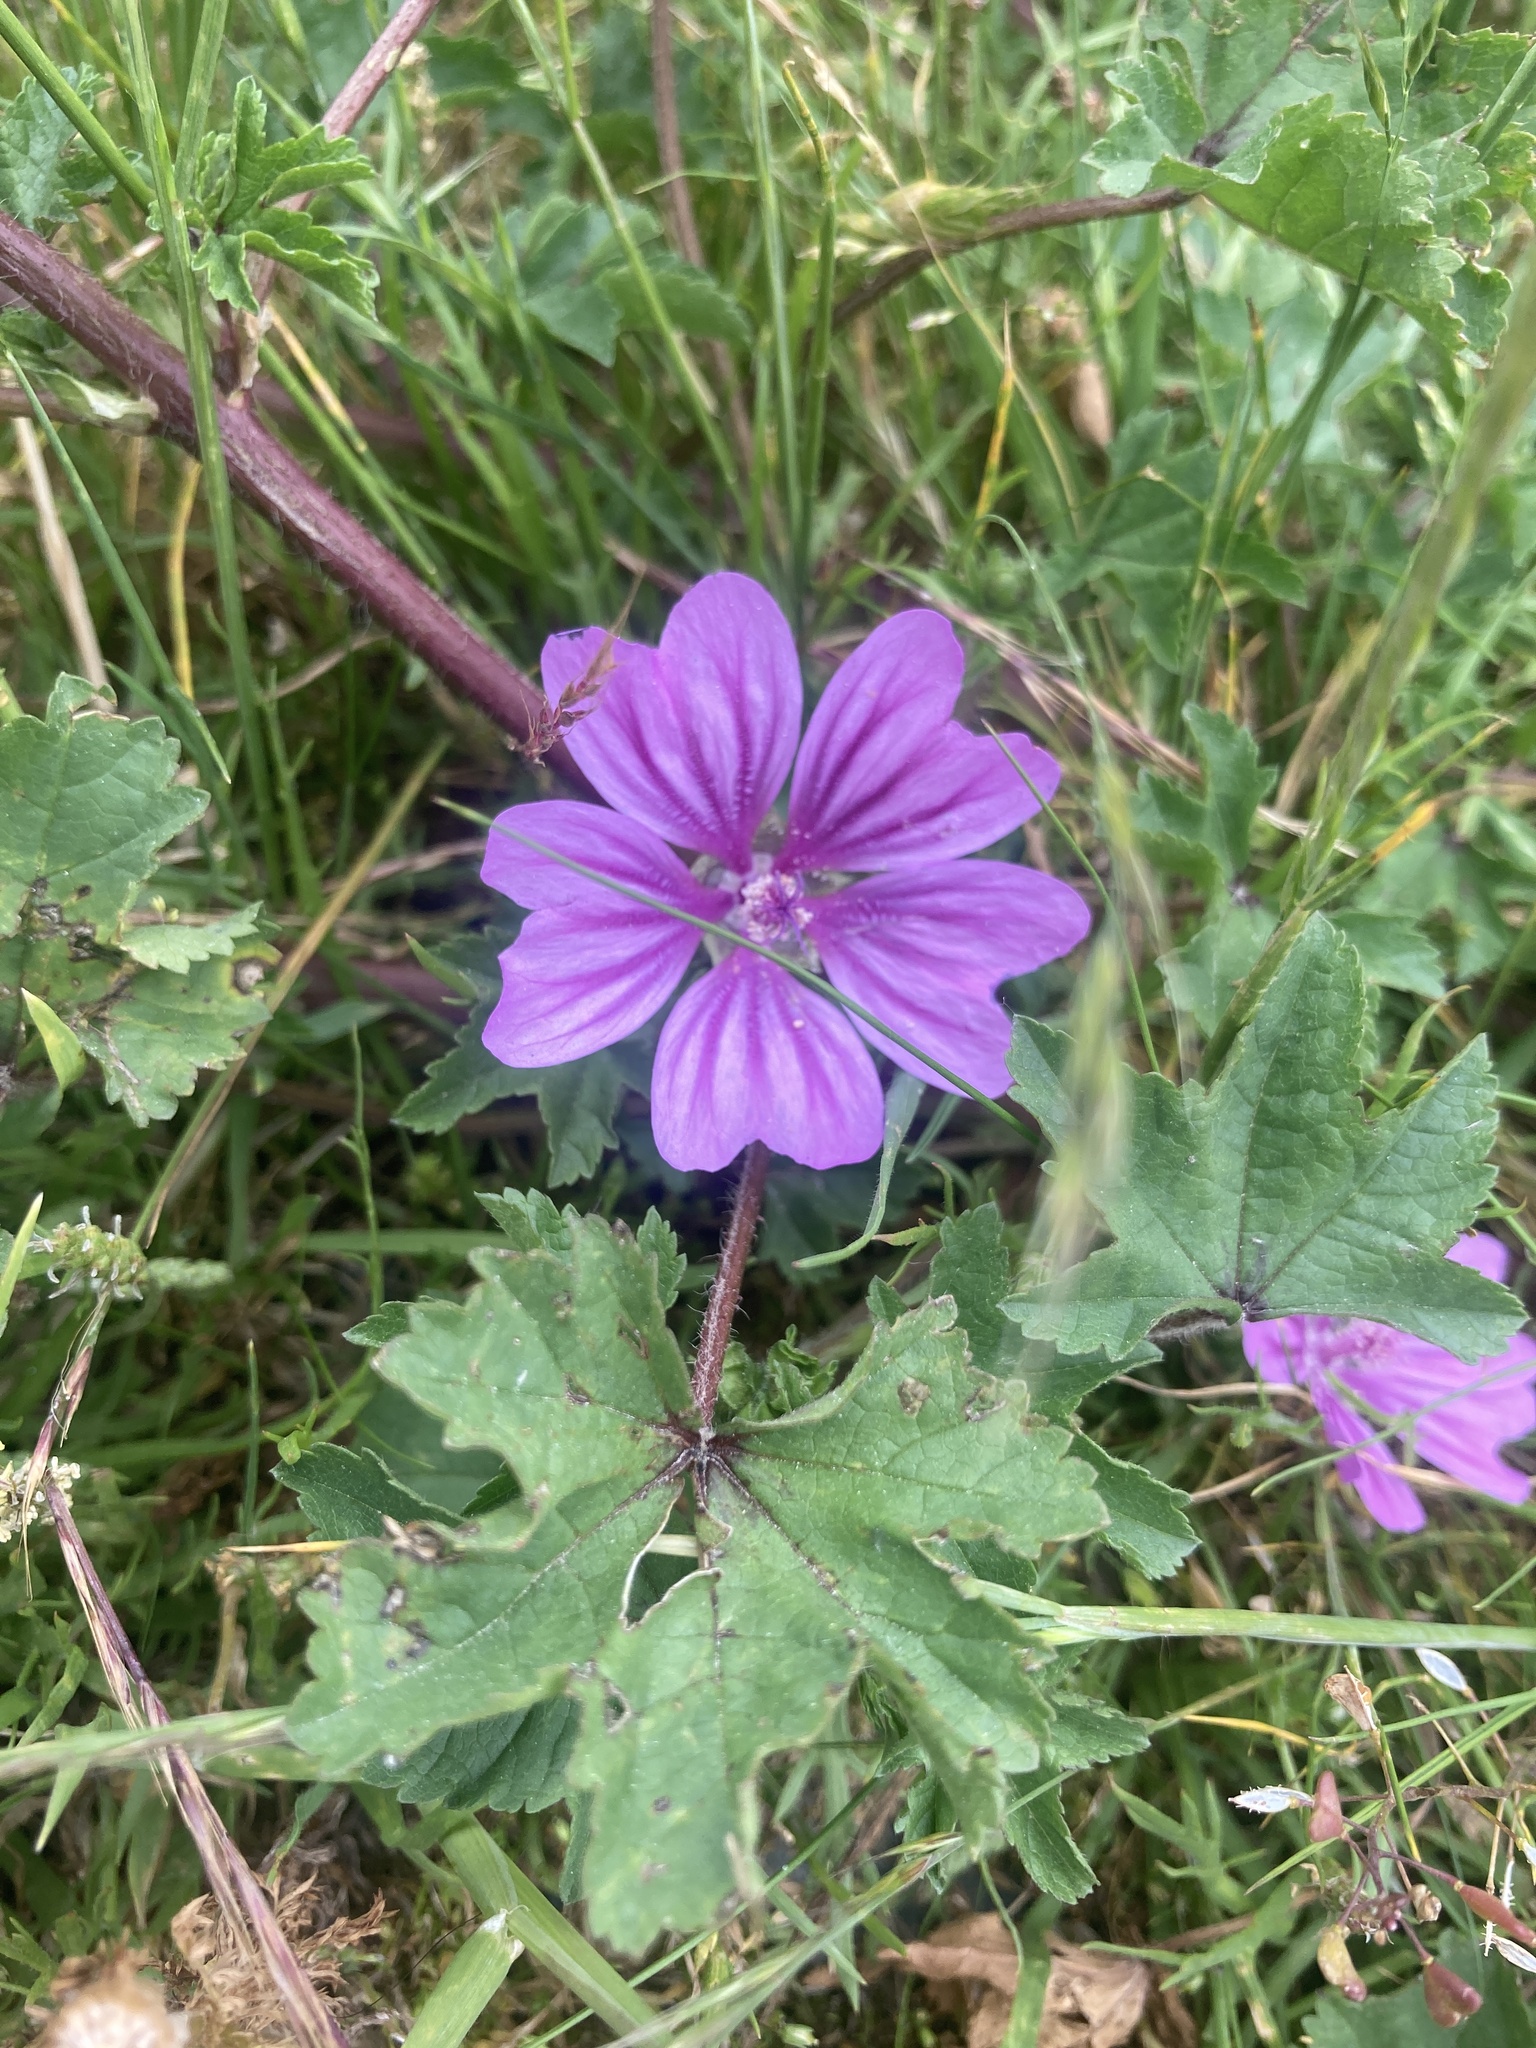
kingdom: Plantae
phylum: Tracheophyta
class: Magnoliopsida
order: Malvales
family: Malvaceae
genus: Malva
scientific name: Malva sylvestris
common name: Common mallow
